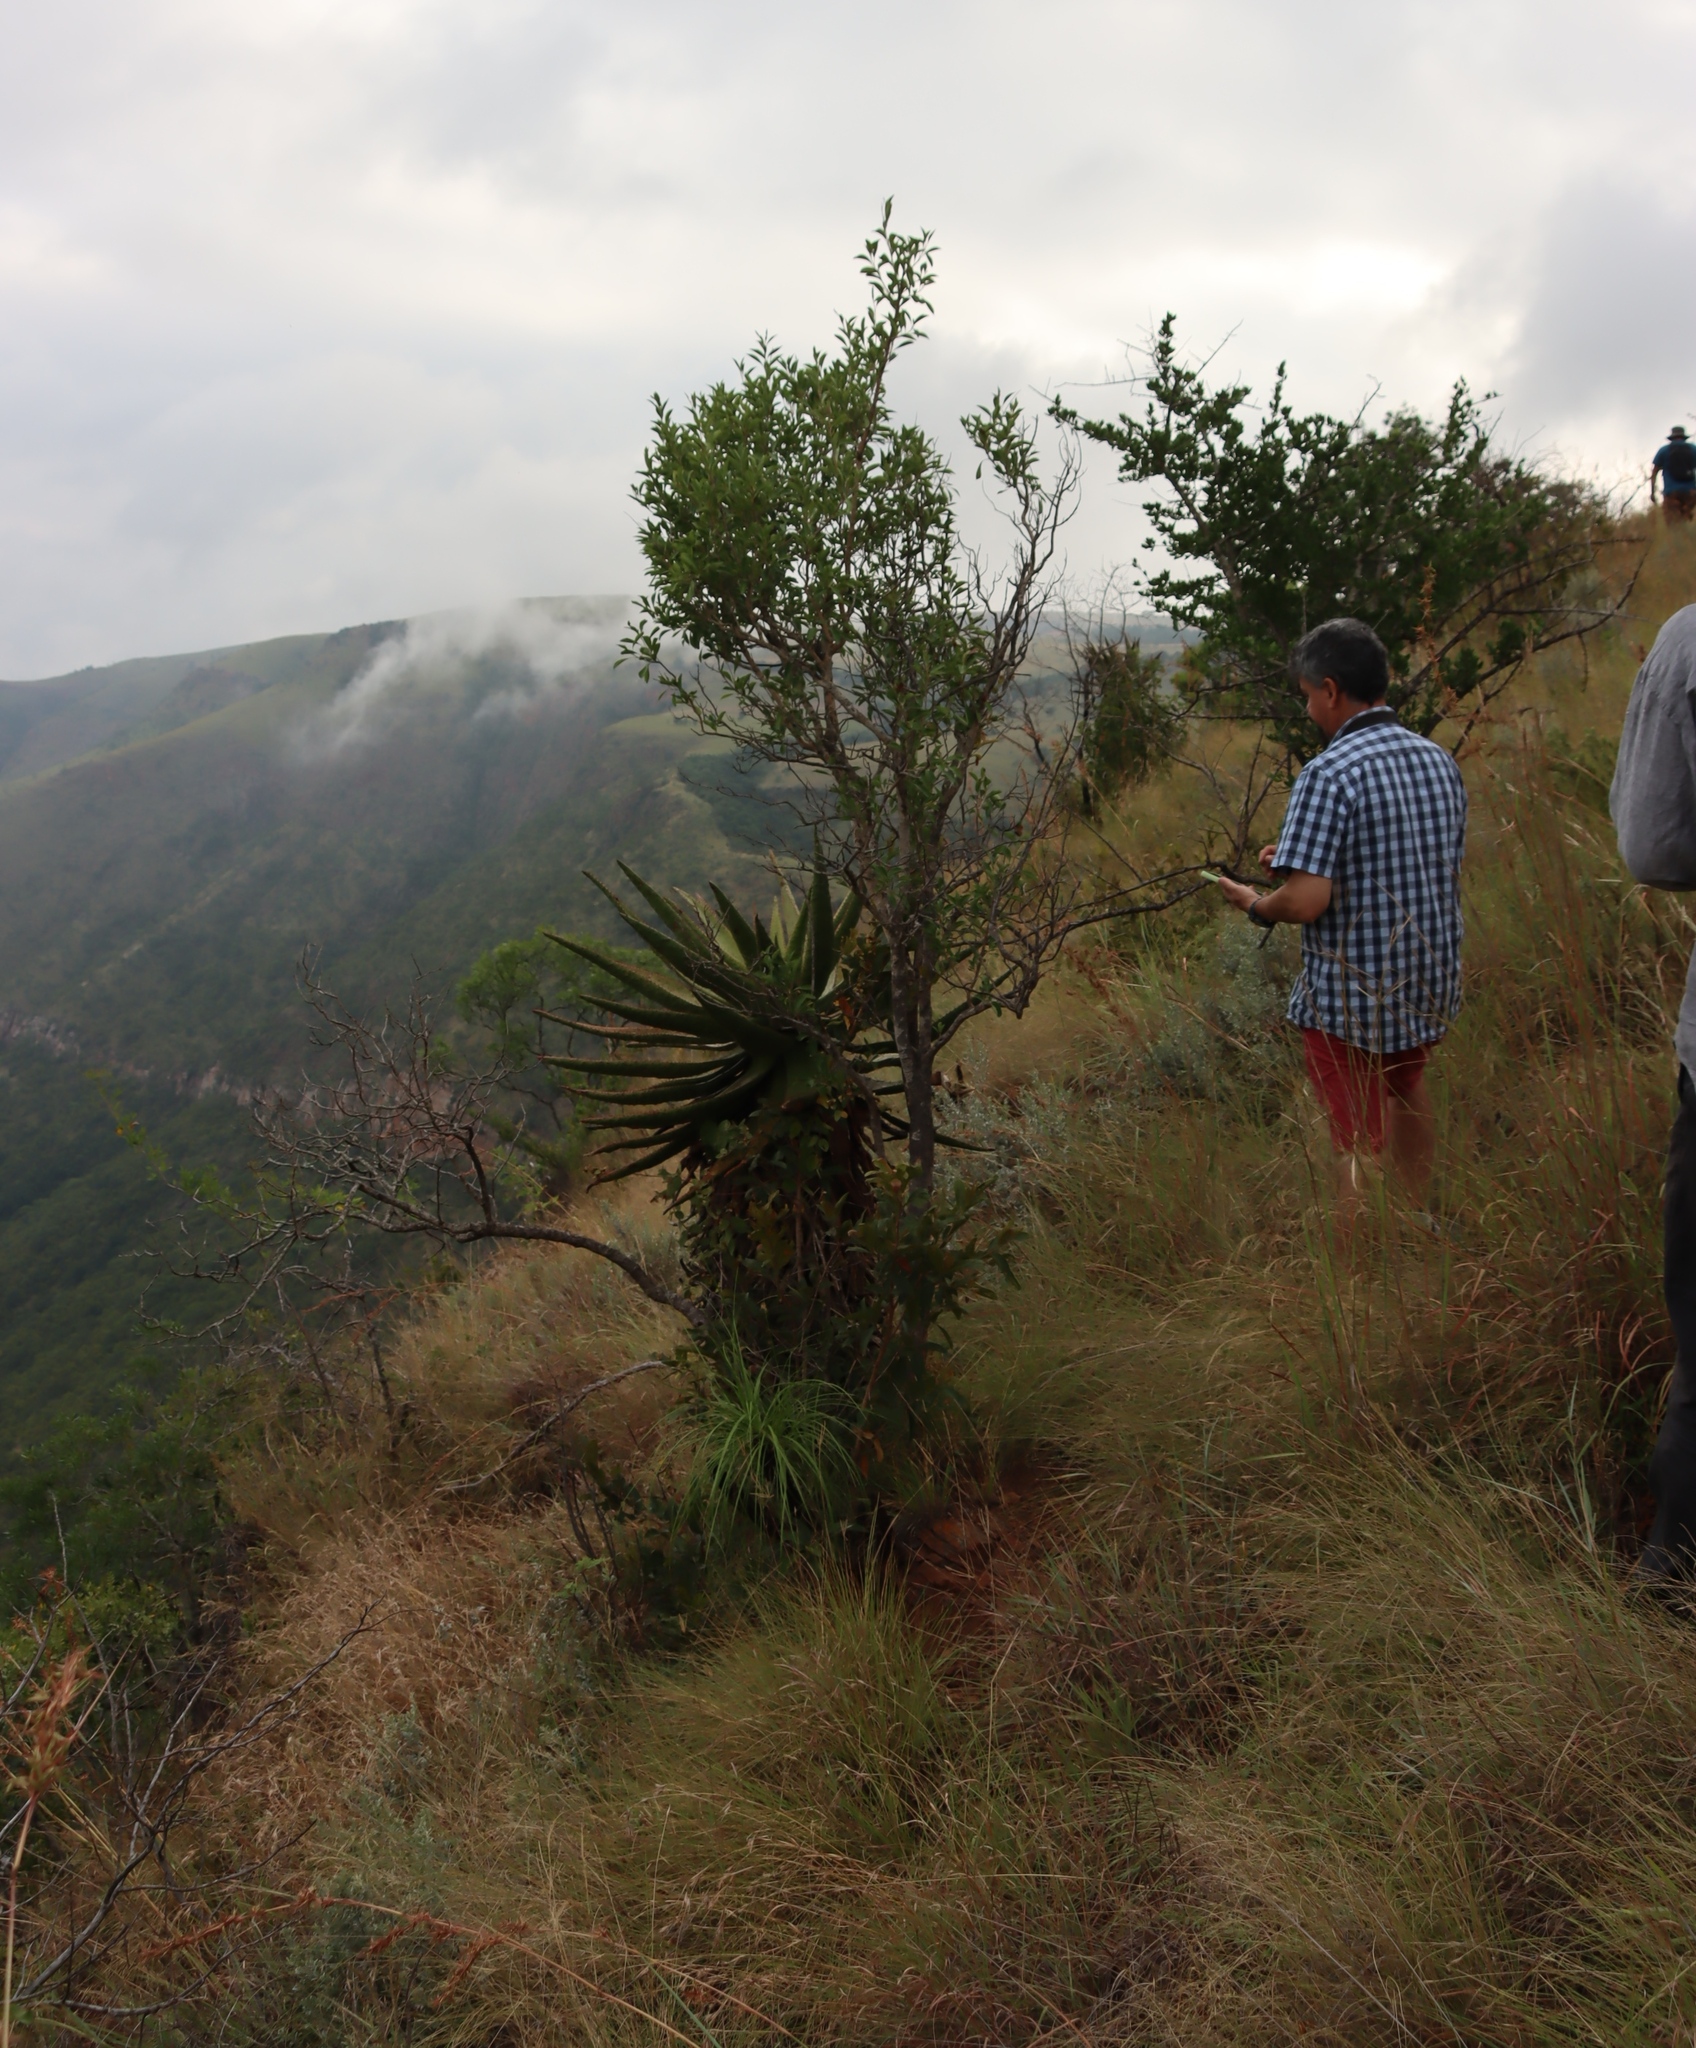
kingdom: Plantae
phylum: Tracheophyta
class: Liliopsida
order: Asparagales
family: Asphodelaceae
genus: Aloe
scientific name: Aloe marlothii
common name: Flat-flowered aloe
